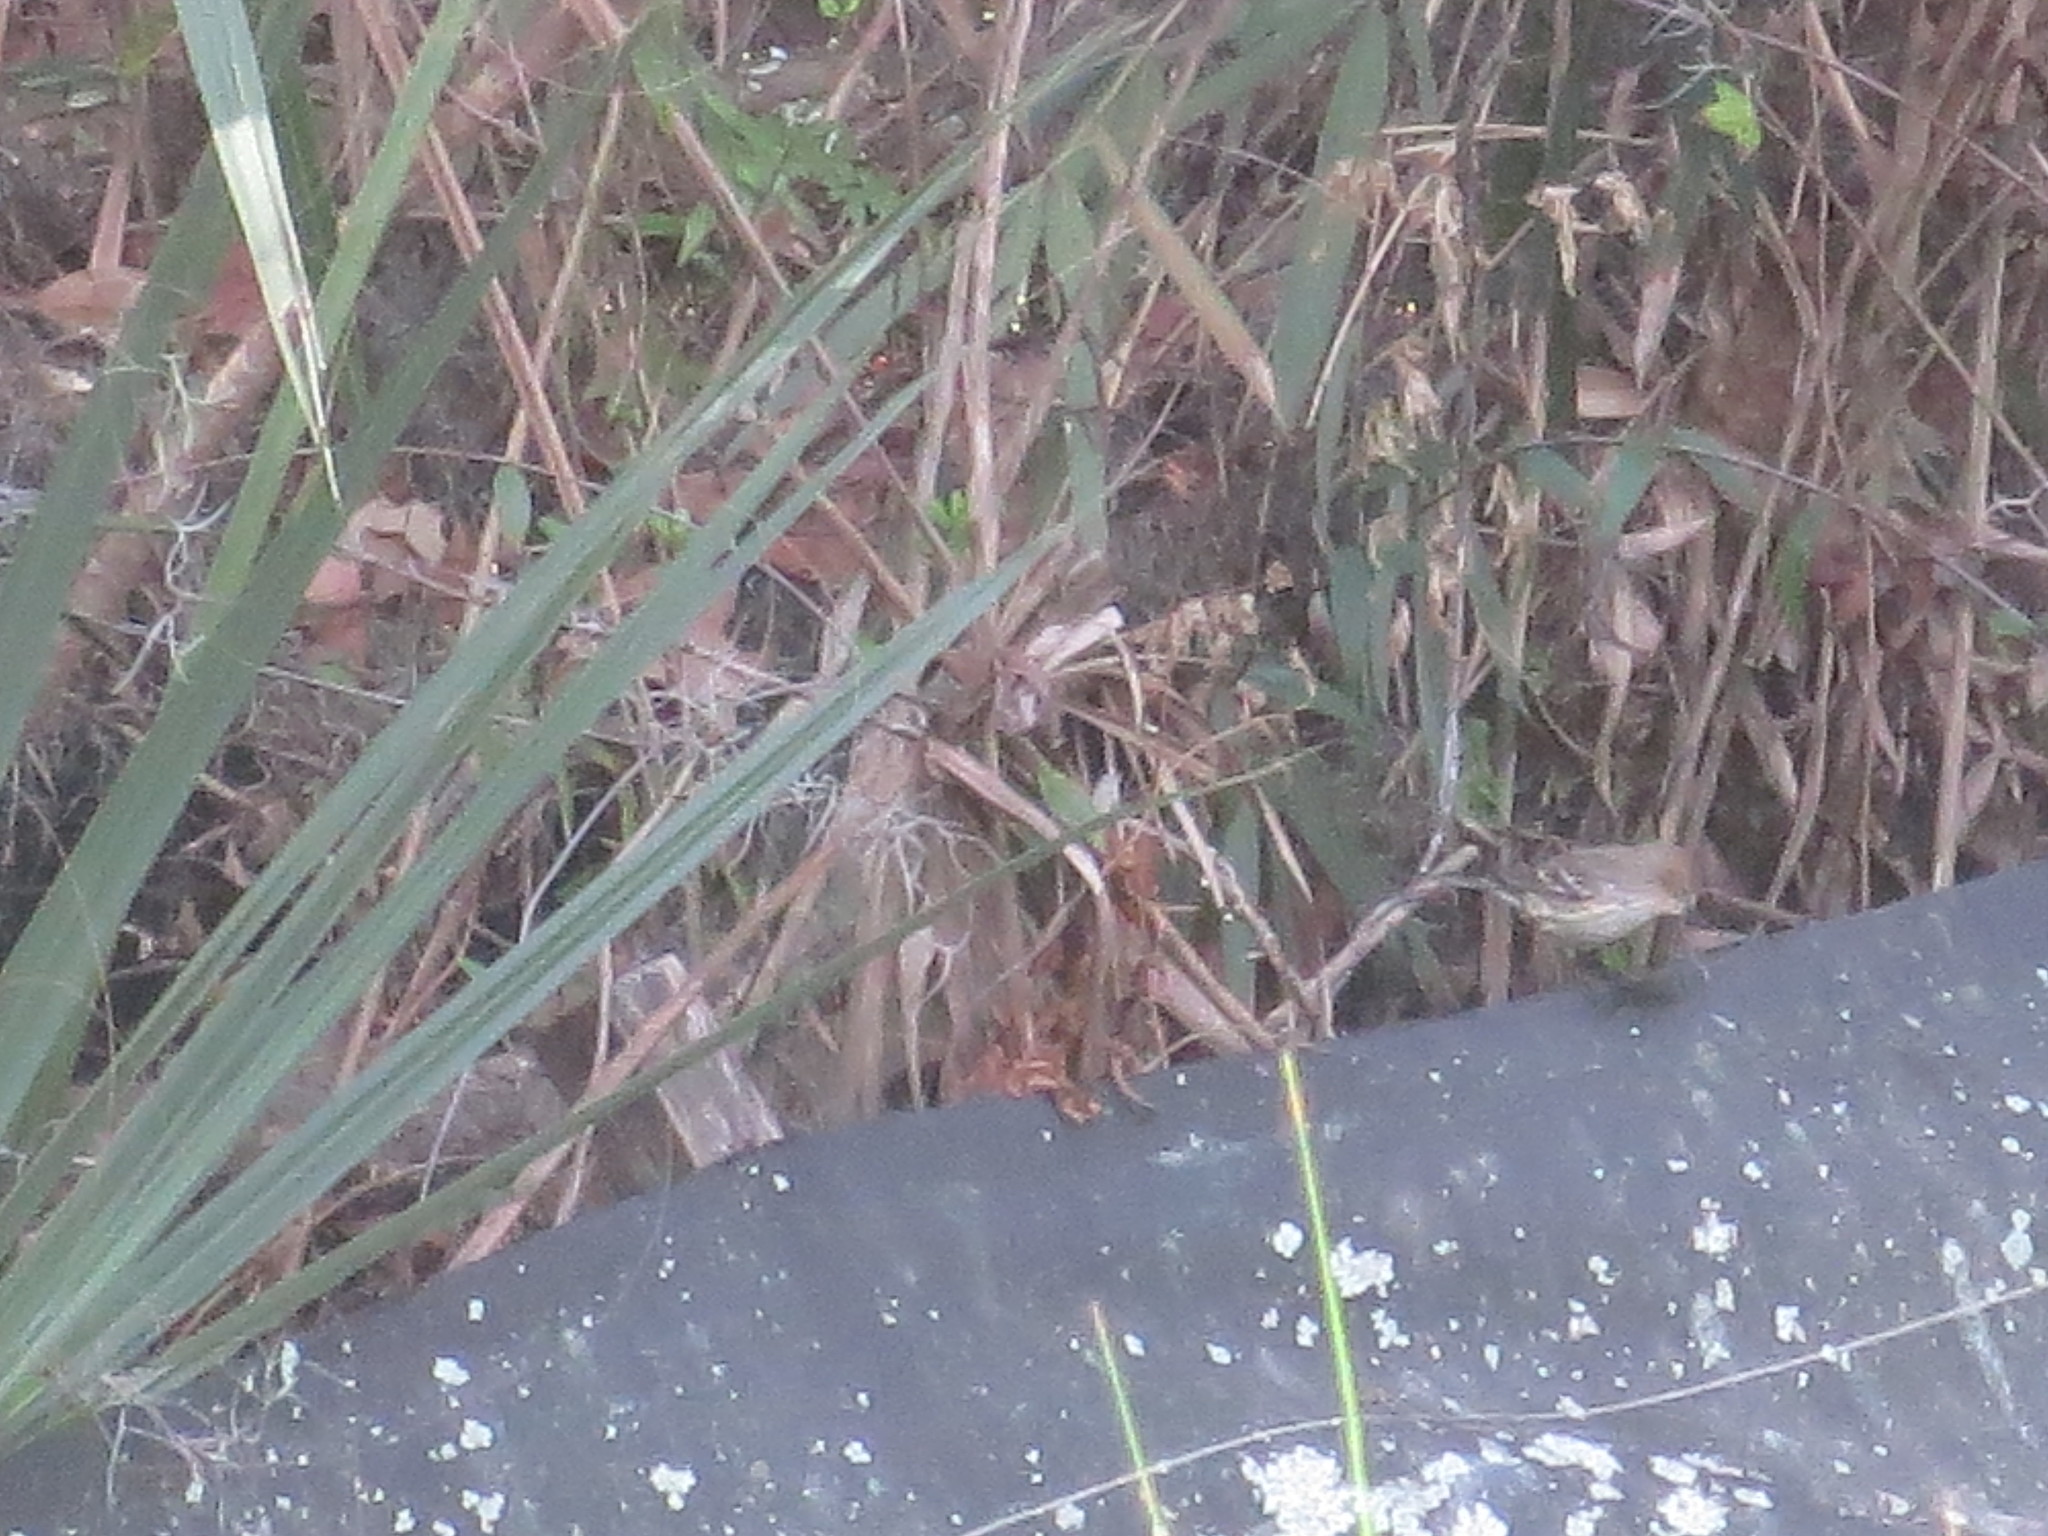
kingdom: Animalia
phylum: Chordata
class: Aves
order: Passeriformes
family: Parulidae
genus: Setophaga
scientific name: Setophaga coronata
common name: Myrtle warbler
